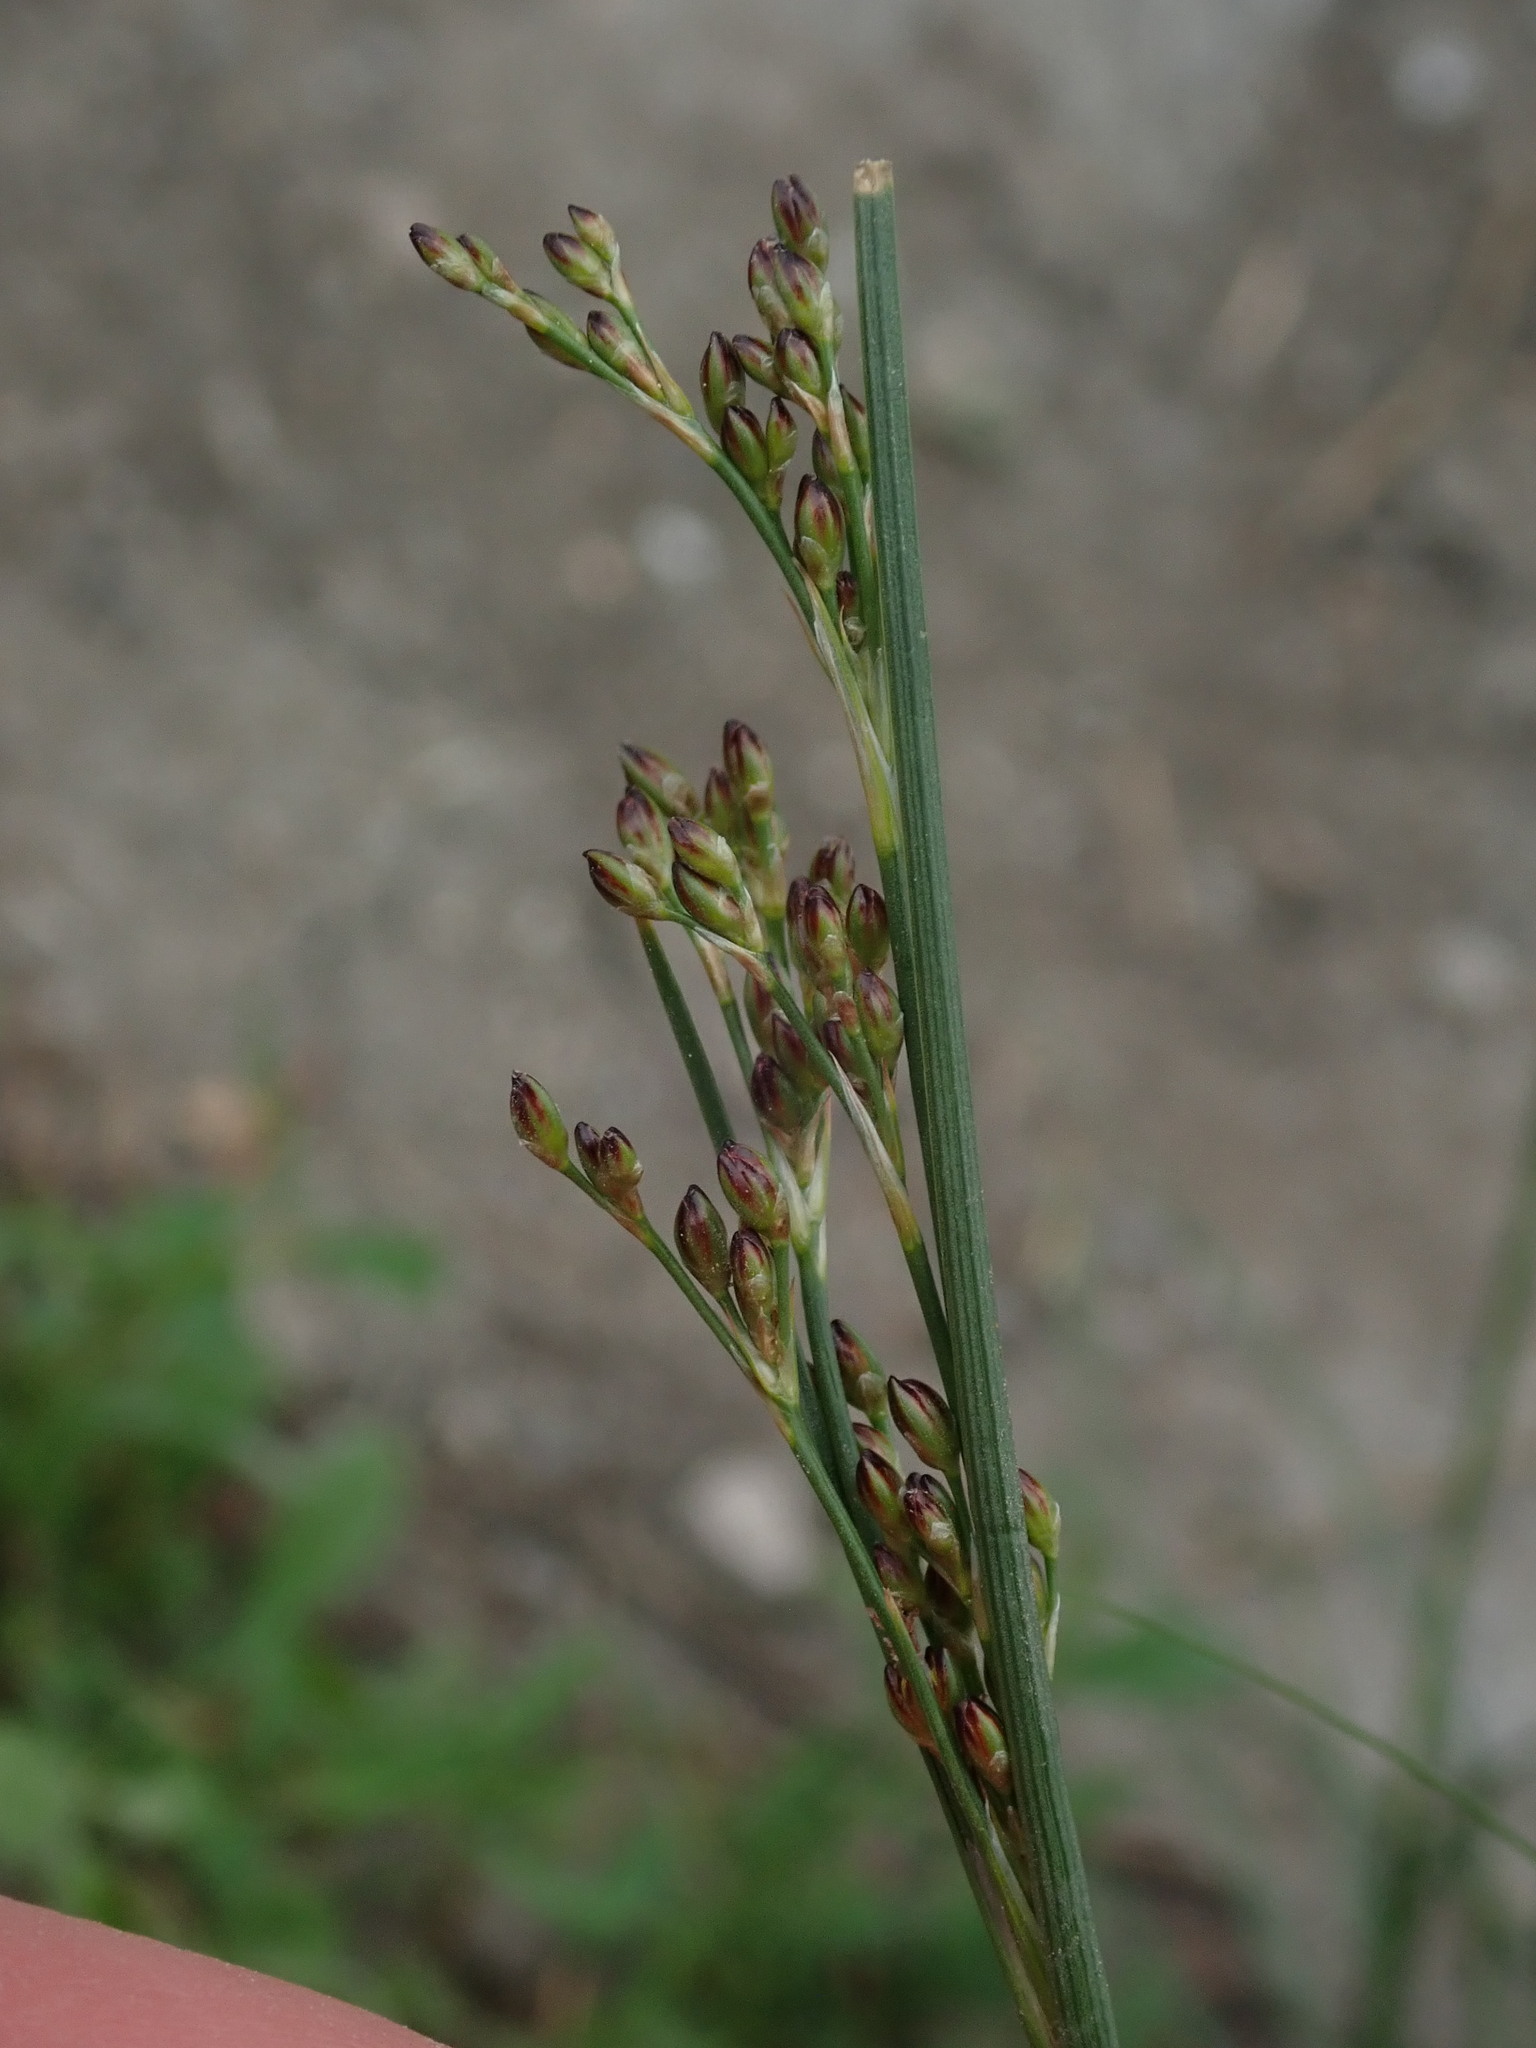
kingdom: Plantae
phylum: Tracheophyta
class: Liliopsida
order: Poales
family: Juncaceae
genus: Juncus
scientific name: Juncus compressus
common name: Round-fruited rush
